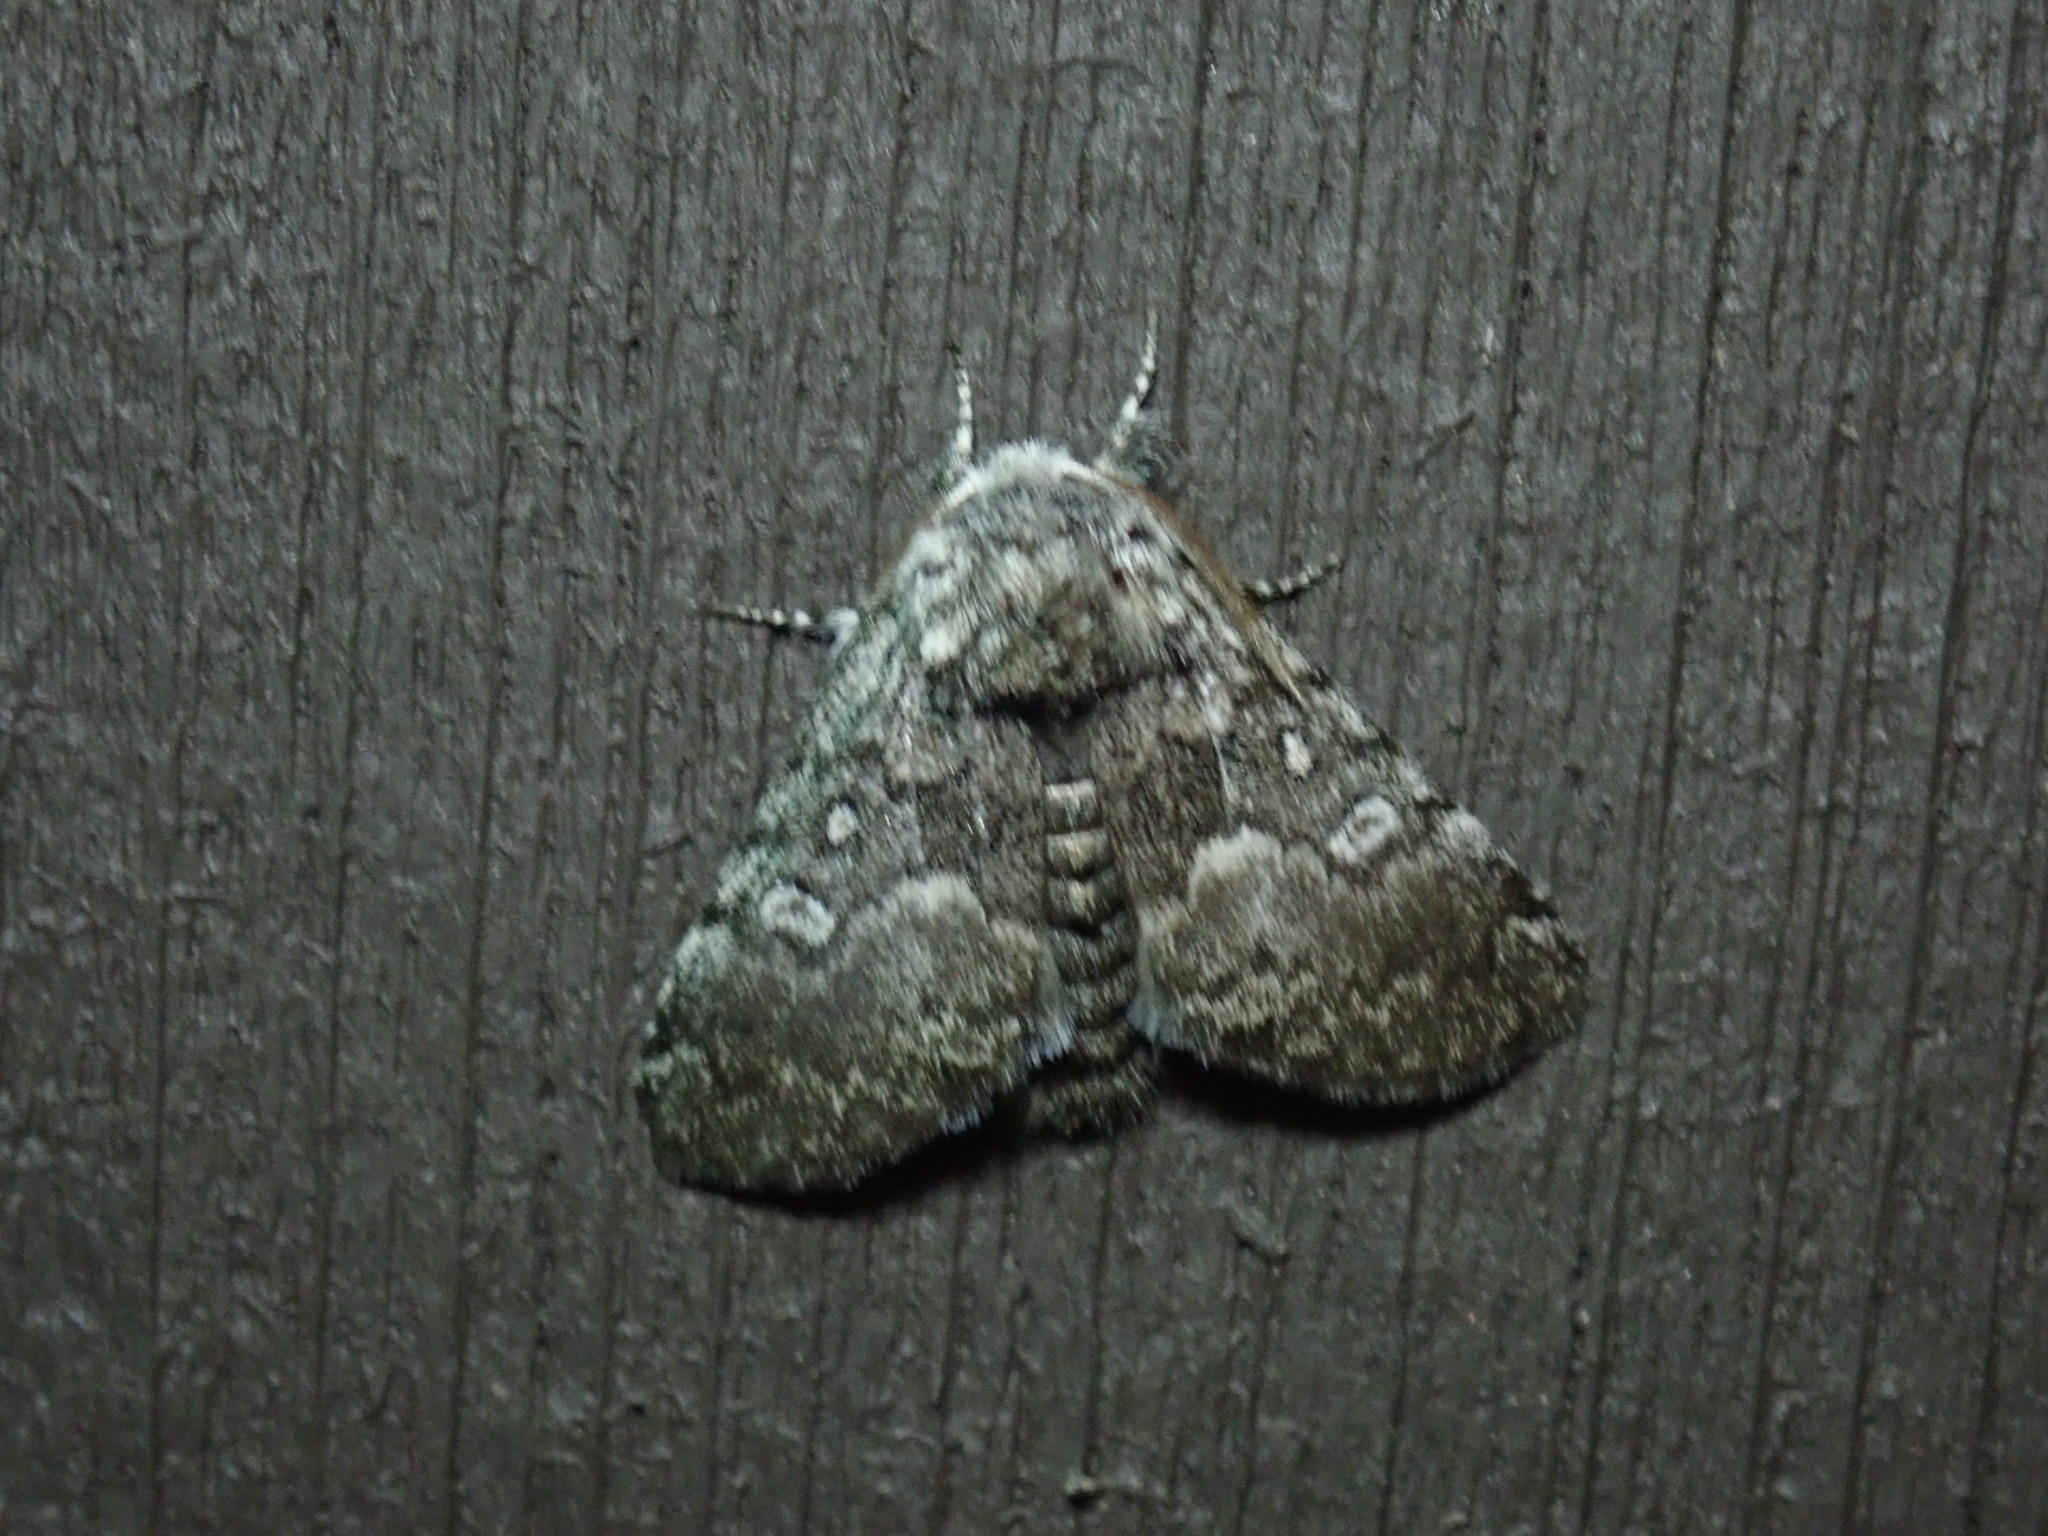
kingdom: Animalia
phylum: Arthropoda
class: Insecta
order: Lepidoptera
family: Noctuidae
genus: Colocasia
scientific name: Colocasia propinquilinea
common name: Close-banded demas
